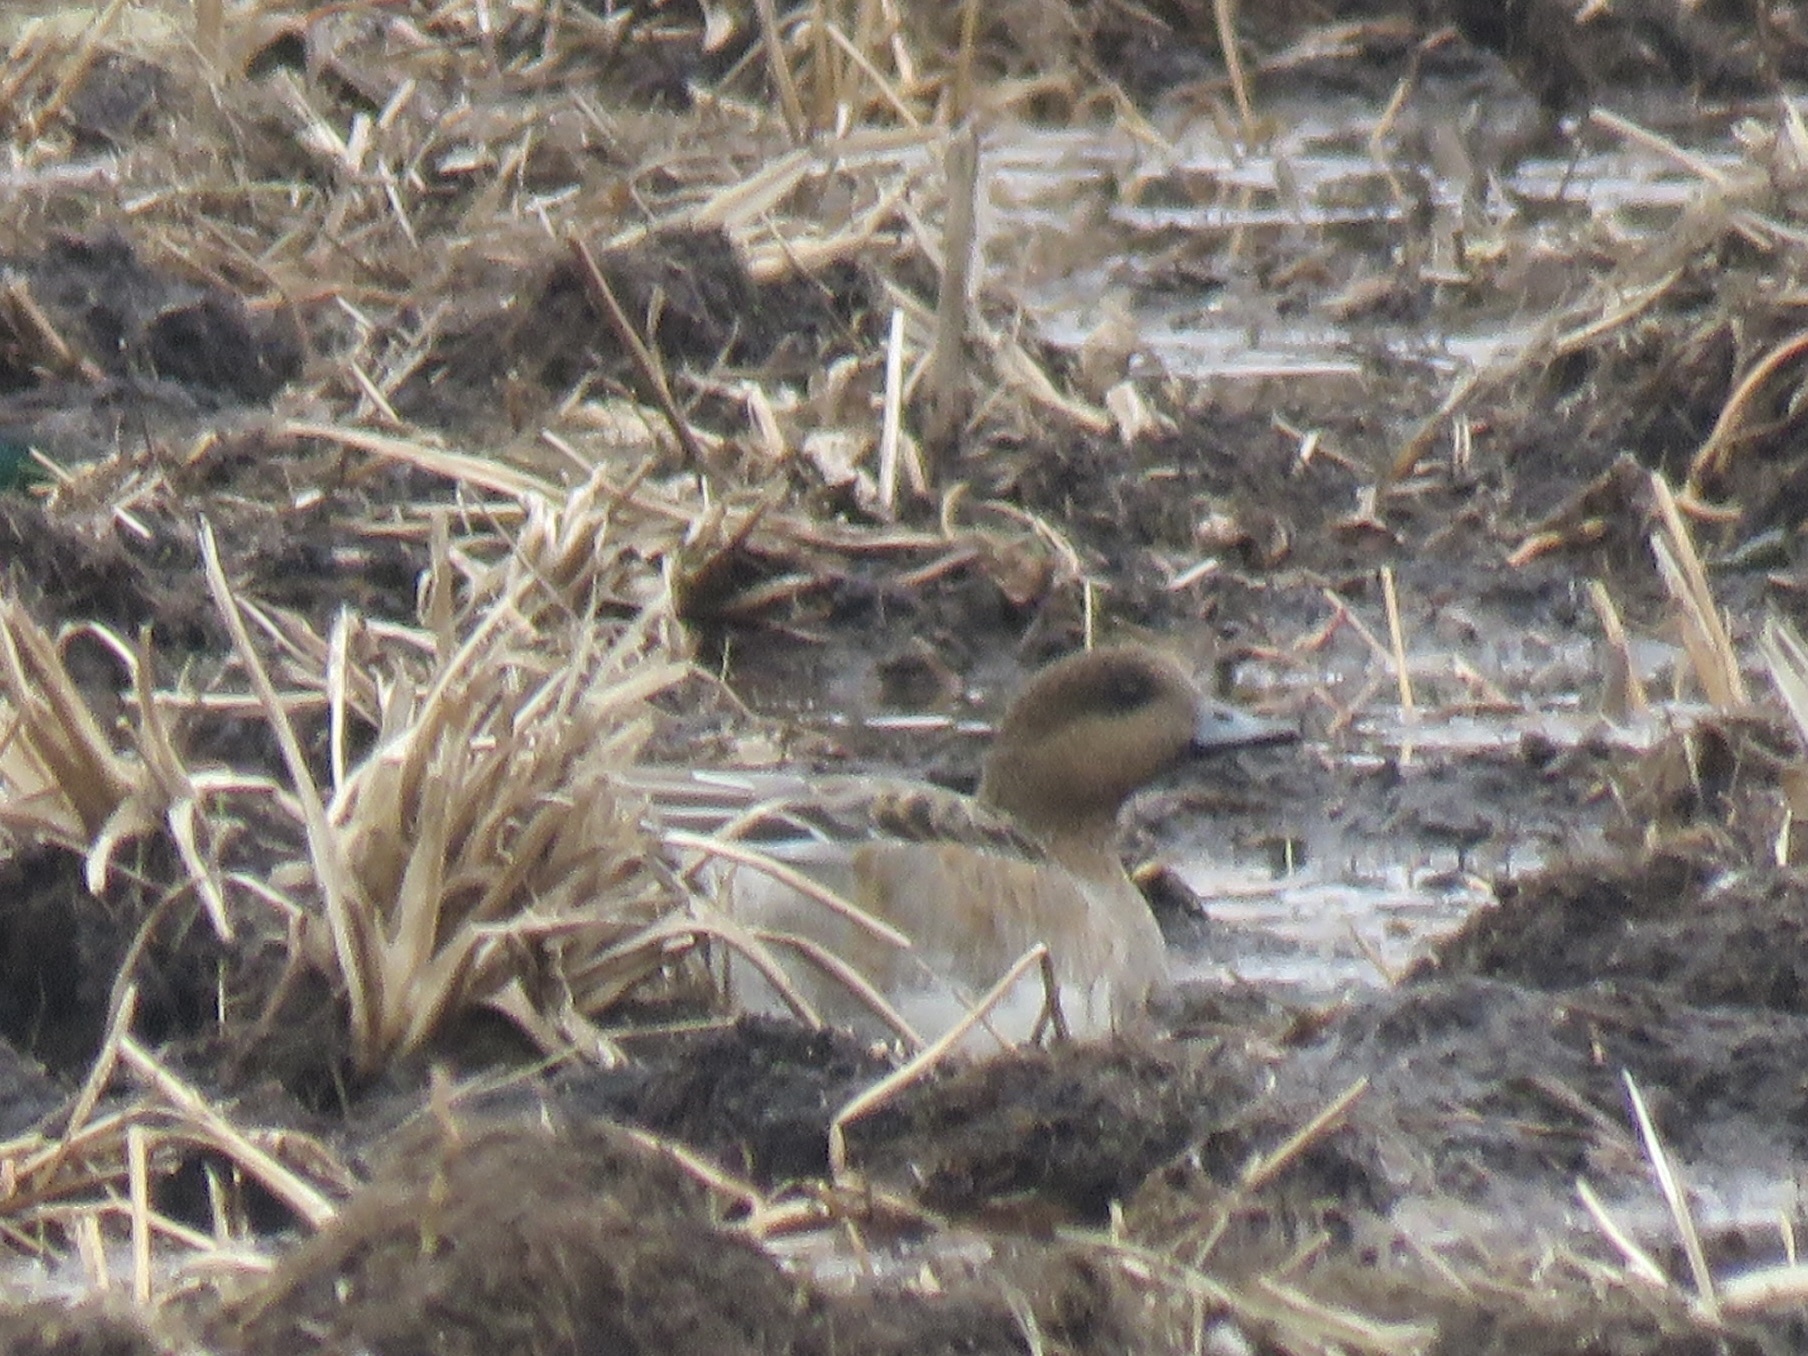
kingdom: Animalia
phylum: Chordata
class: Aves
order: Anseriformes
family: Anatidae
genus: Mareca
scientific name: Mareca penelope
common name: Eurasian wigeon
